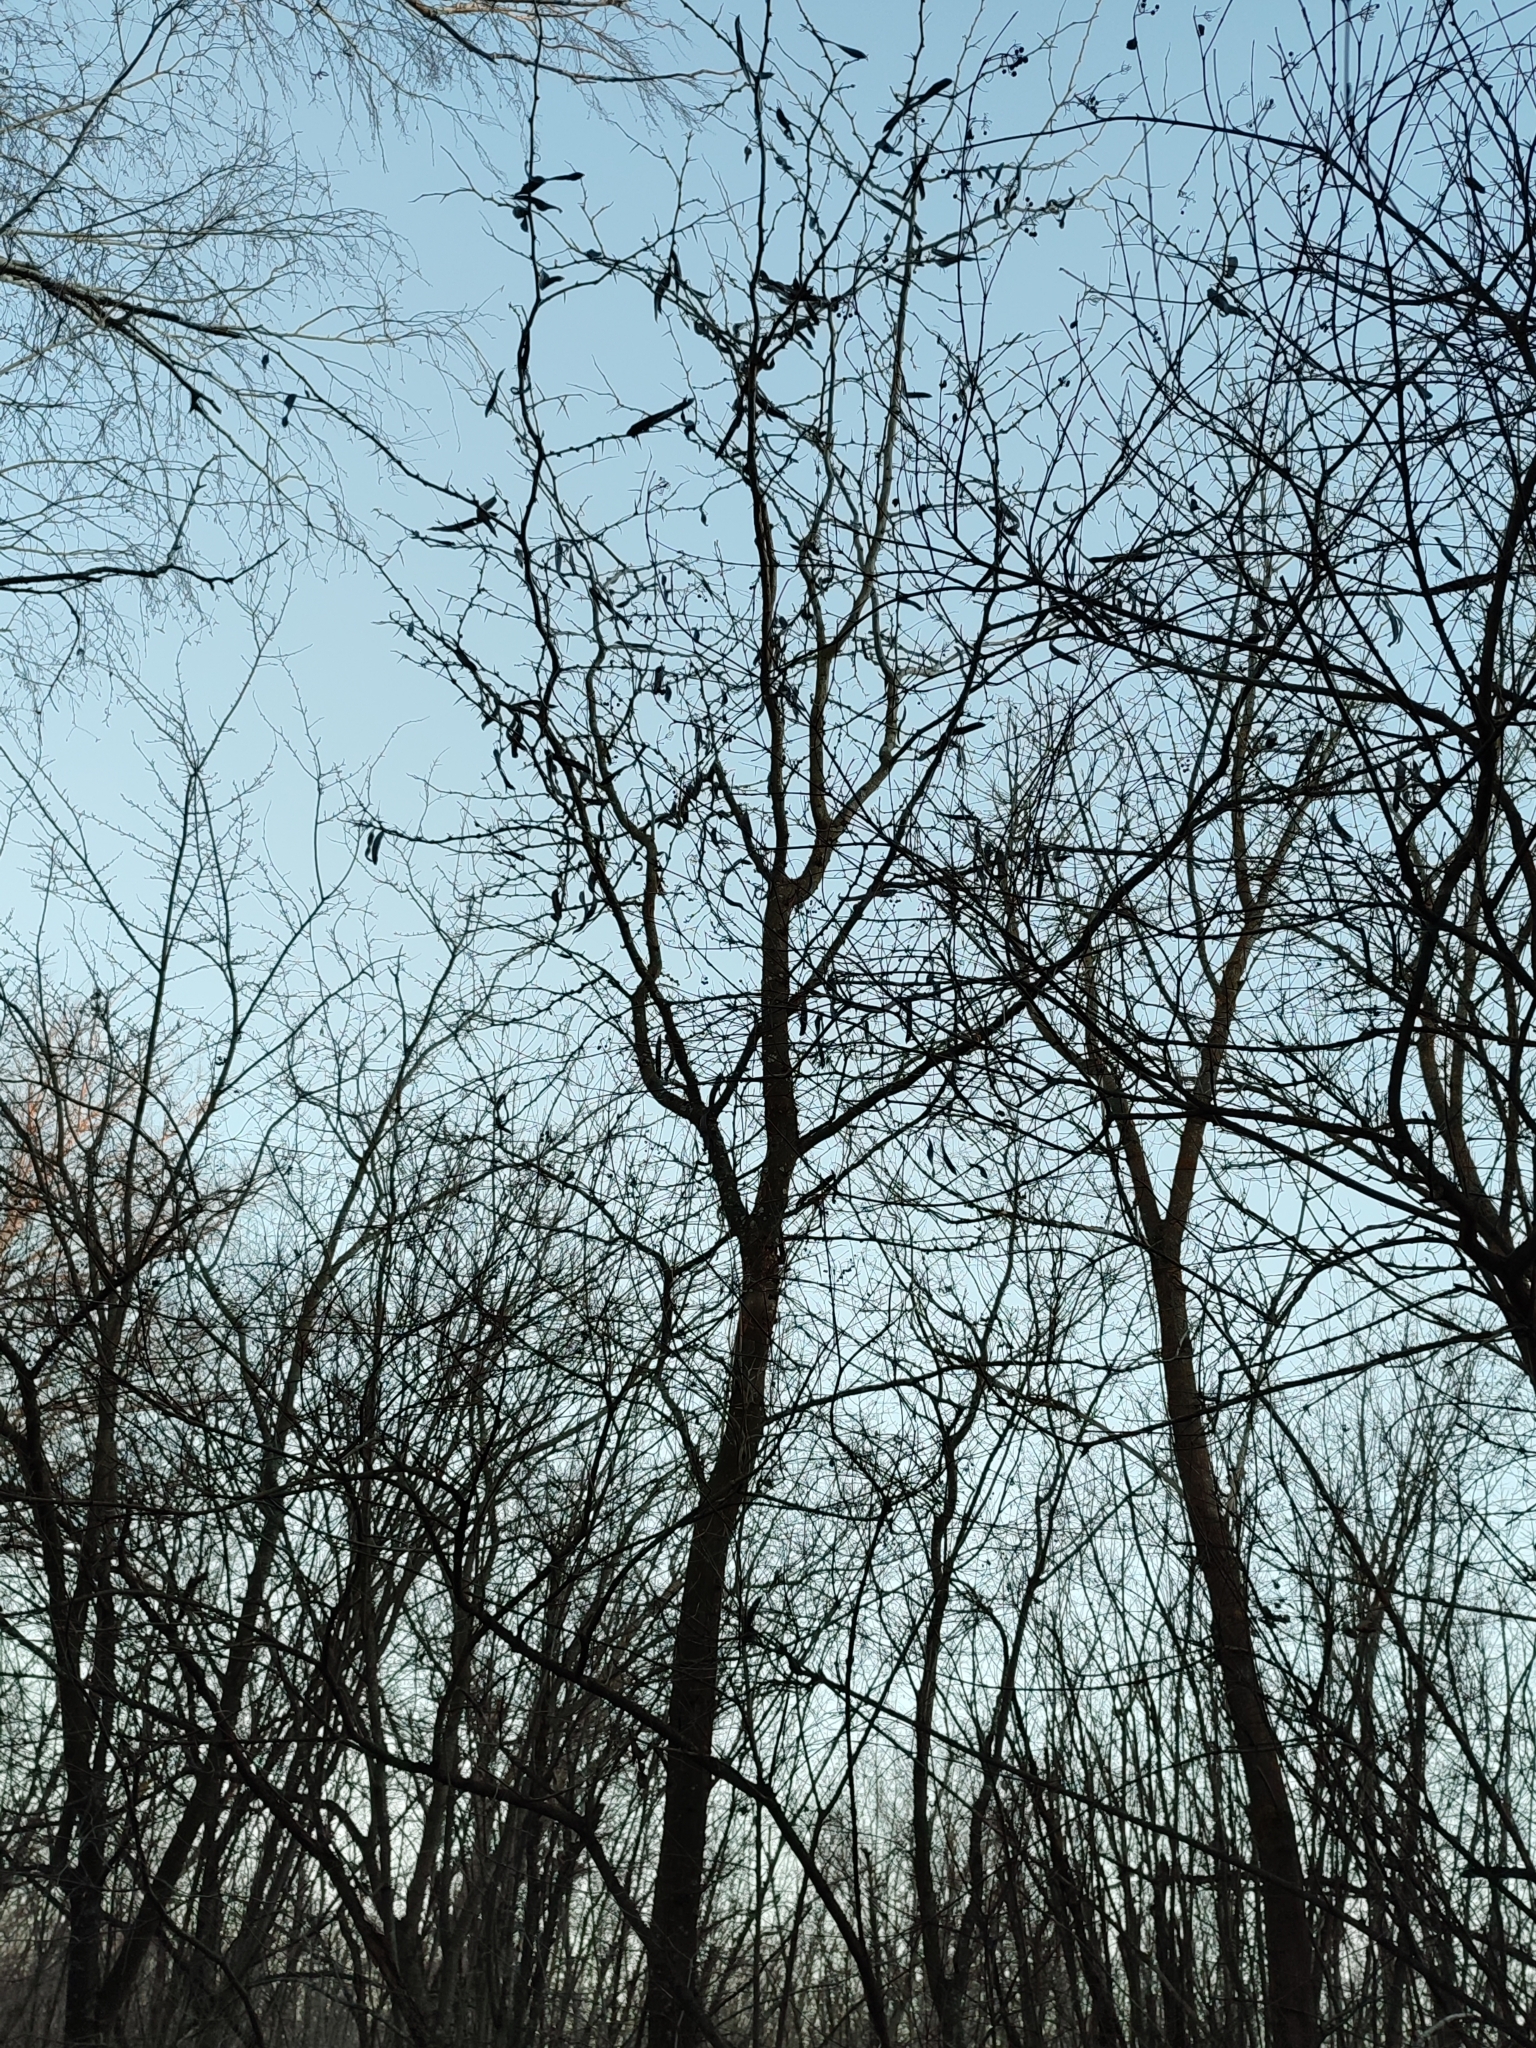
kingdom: Plantae
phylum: Tracheophyta
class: Magnoliopsida
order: Fabales
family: Fabaceae
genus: Gleditsia
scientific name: Gleditsia triacanthos
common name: Common honeylocust
